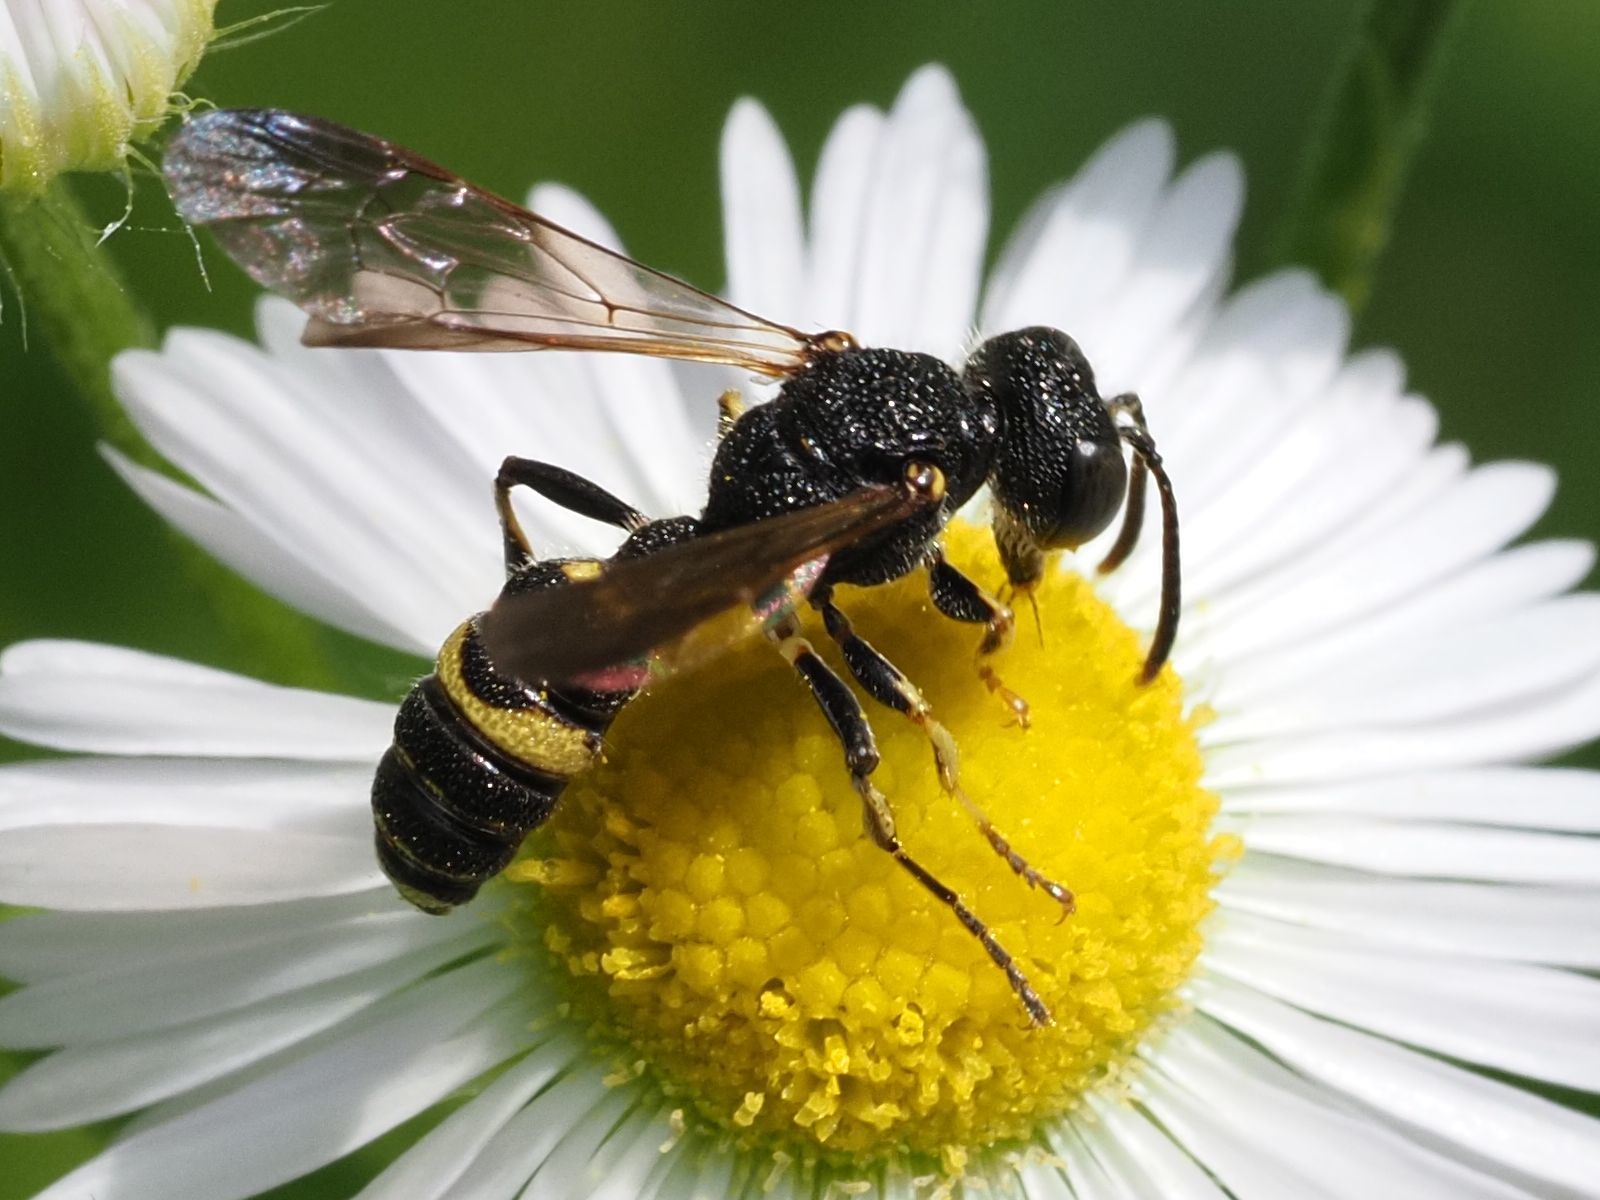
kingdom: Animalia
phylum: Arthropoda
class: Insecta
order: Hymenoptera
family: Crabronidae
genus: Cerceris
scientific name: Cerceris hortivaga
